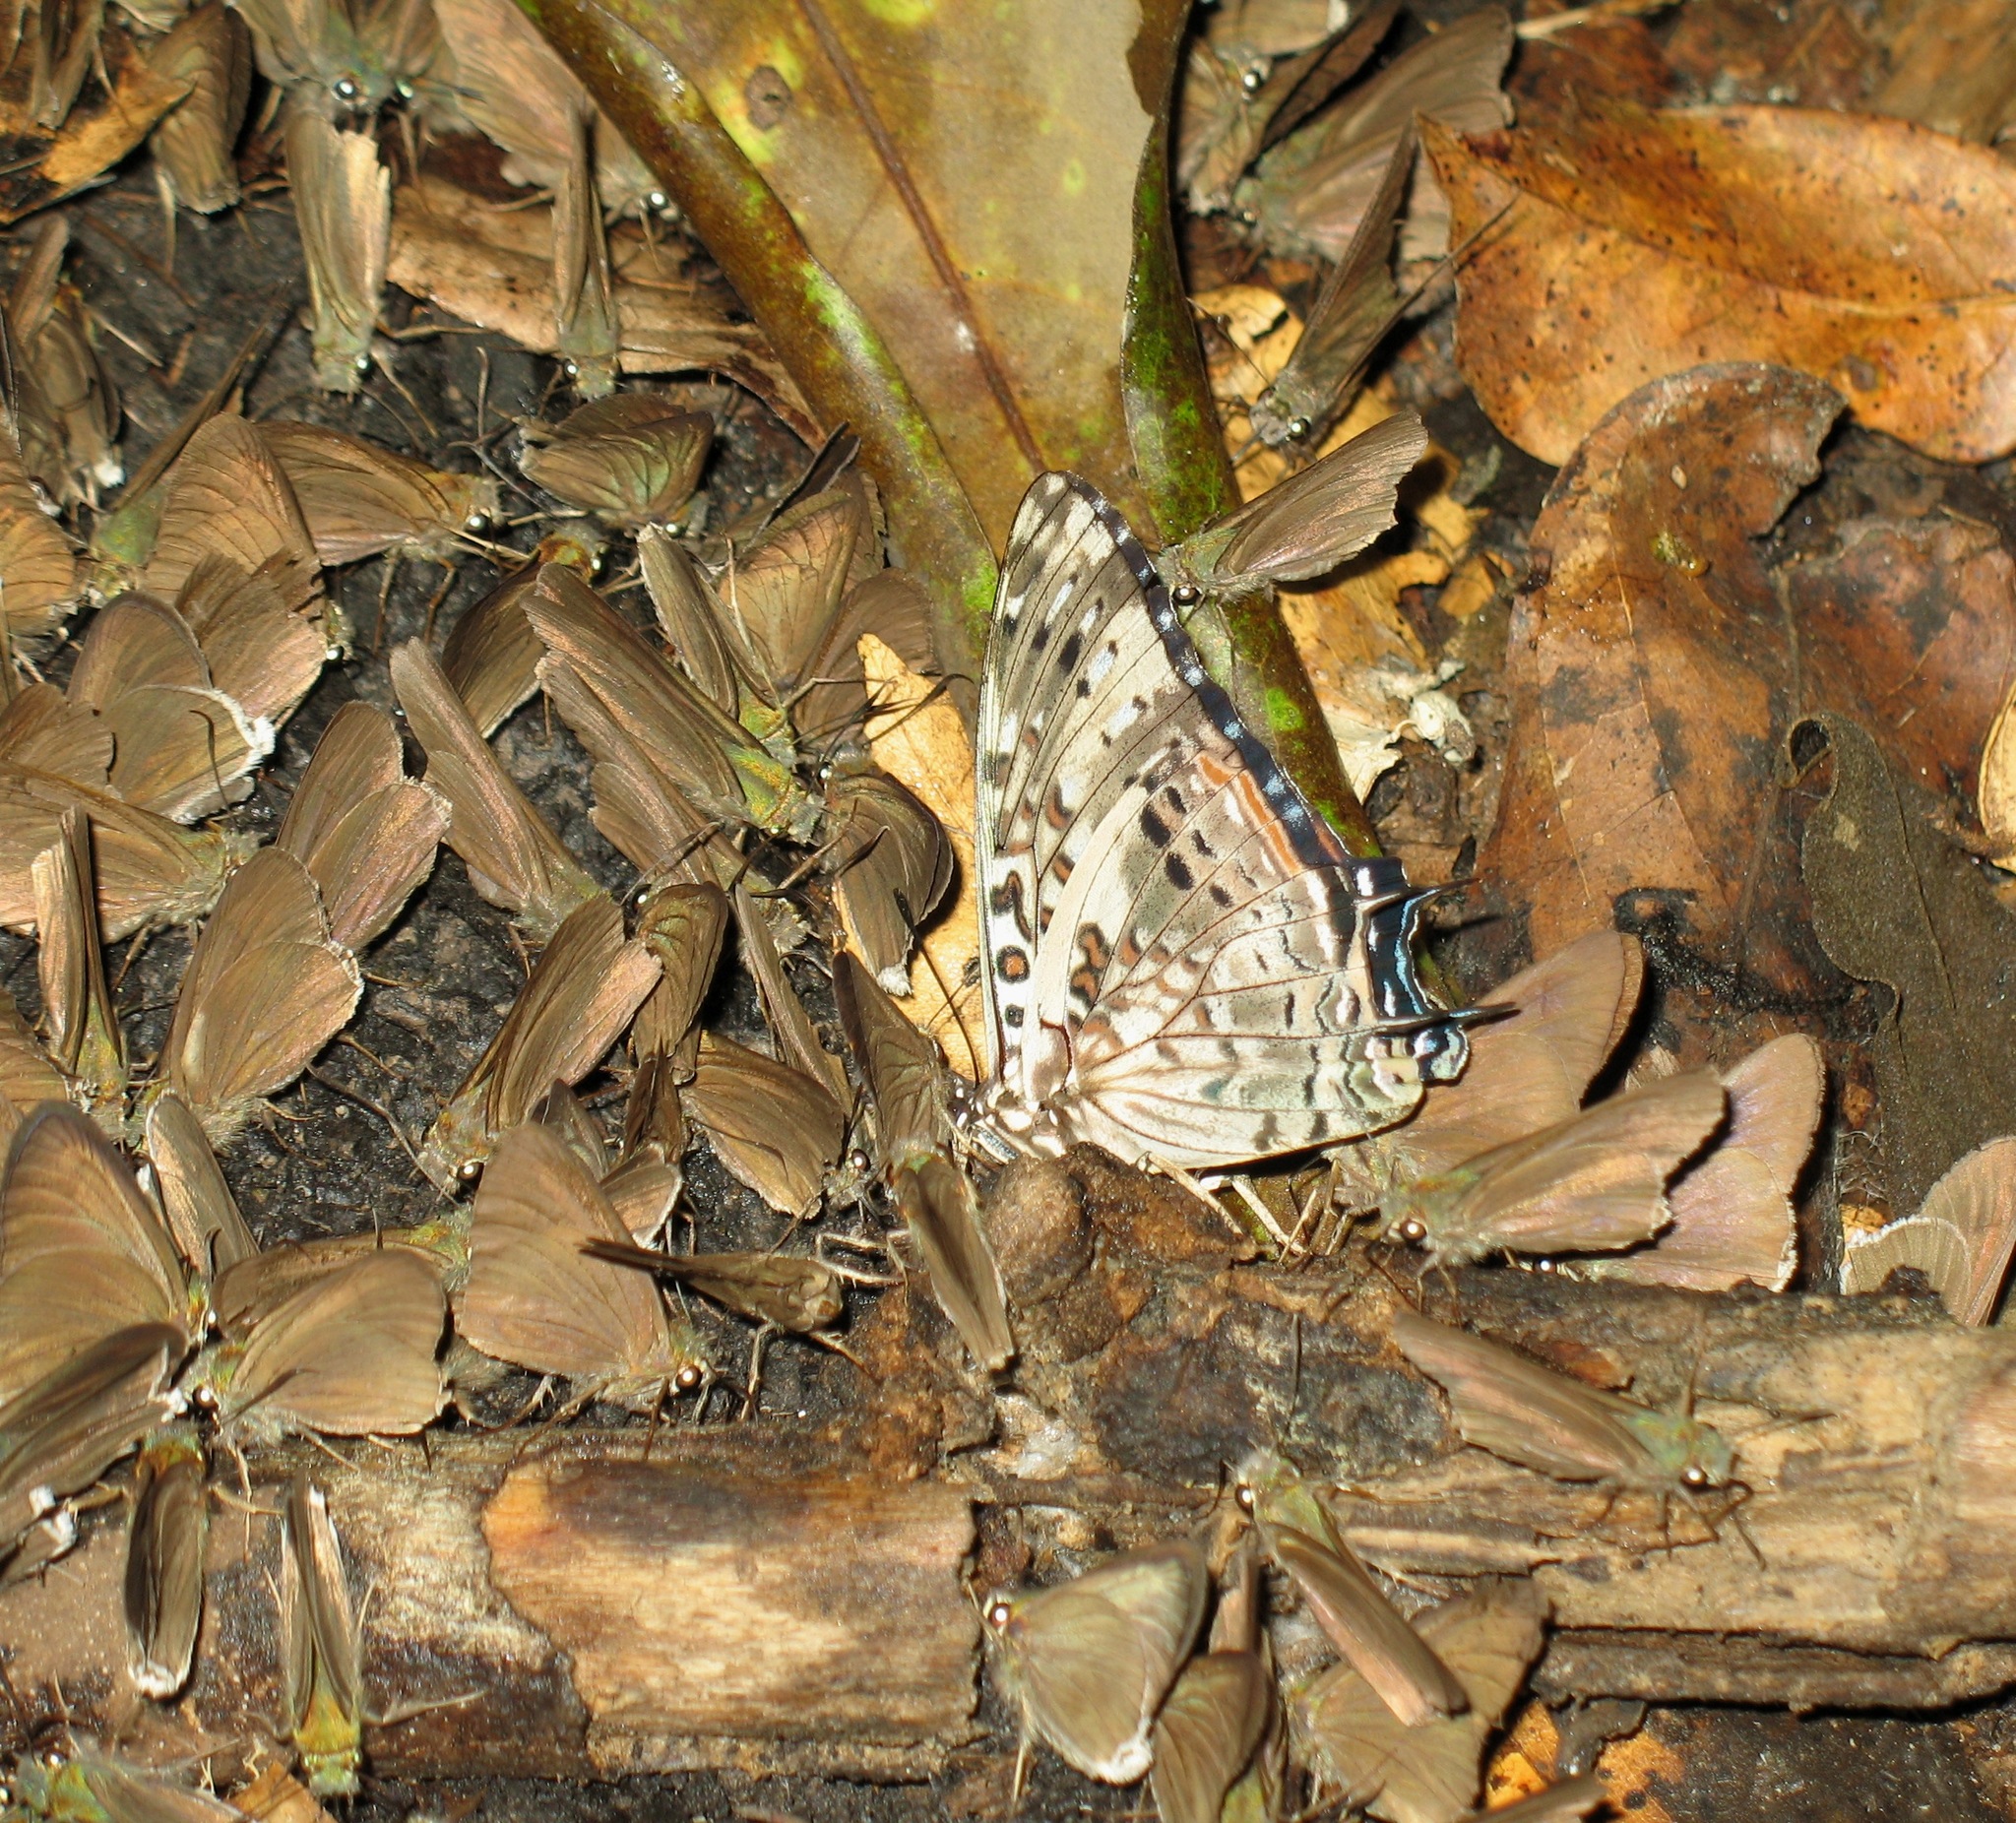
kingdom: Animalia
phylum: Arthropoda
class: Insecta
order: Lepidoptera
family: Nymphalidae
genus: Charaxes
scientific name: Charaxes etesipe
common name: Savannah charaxes
